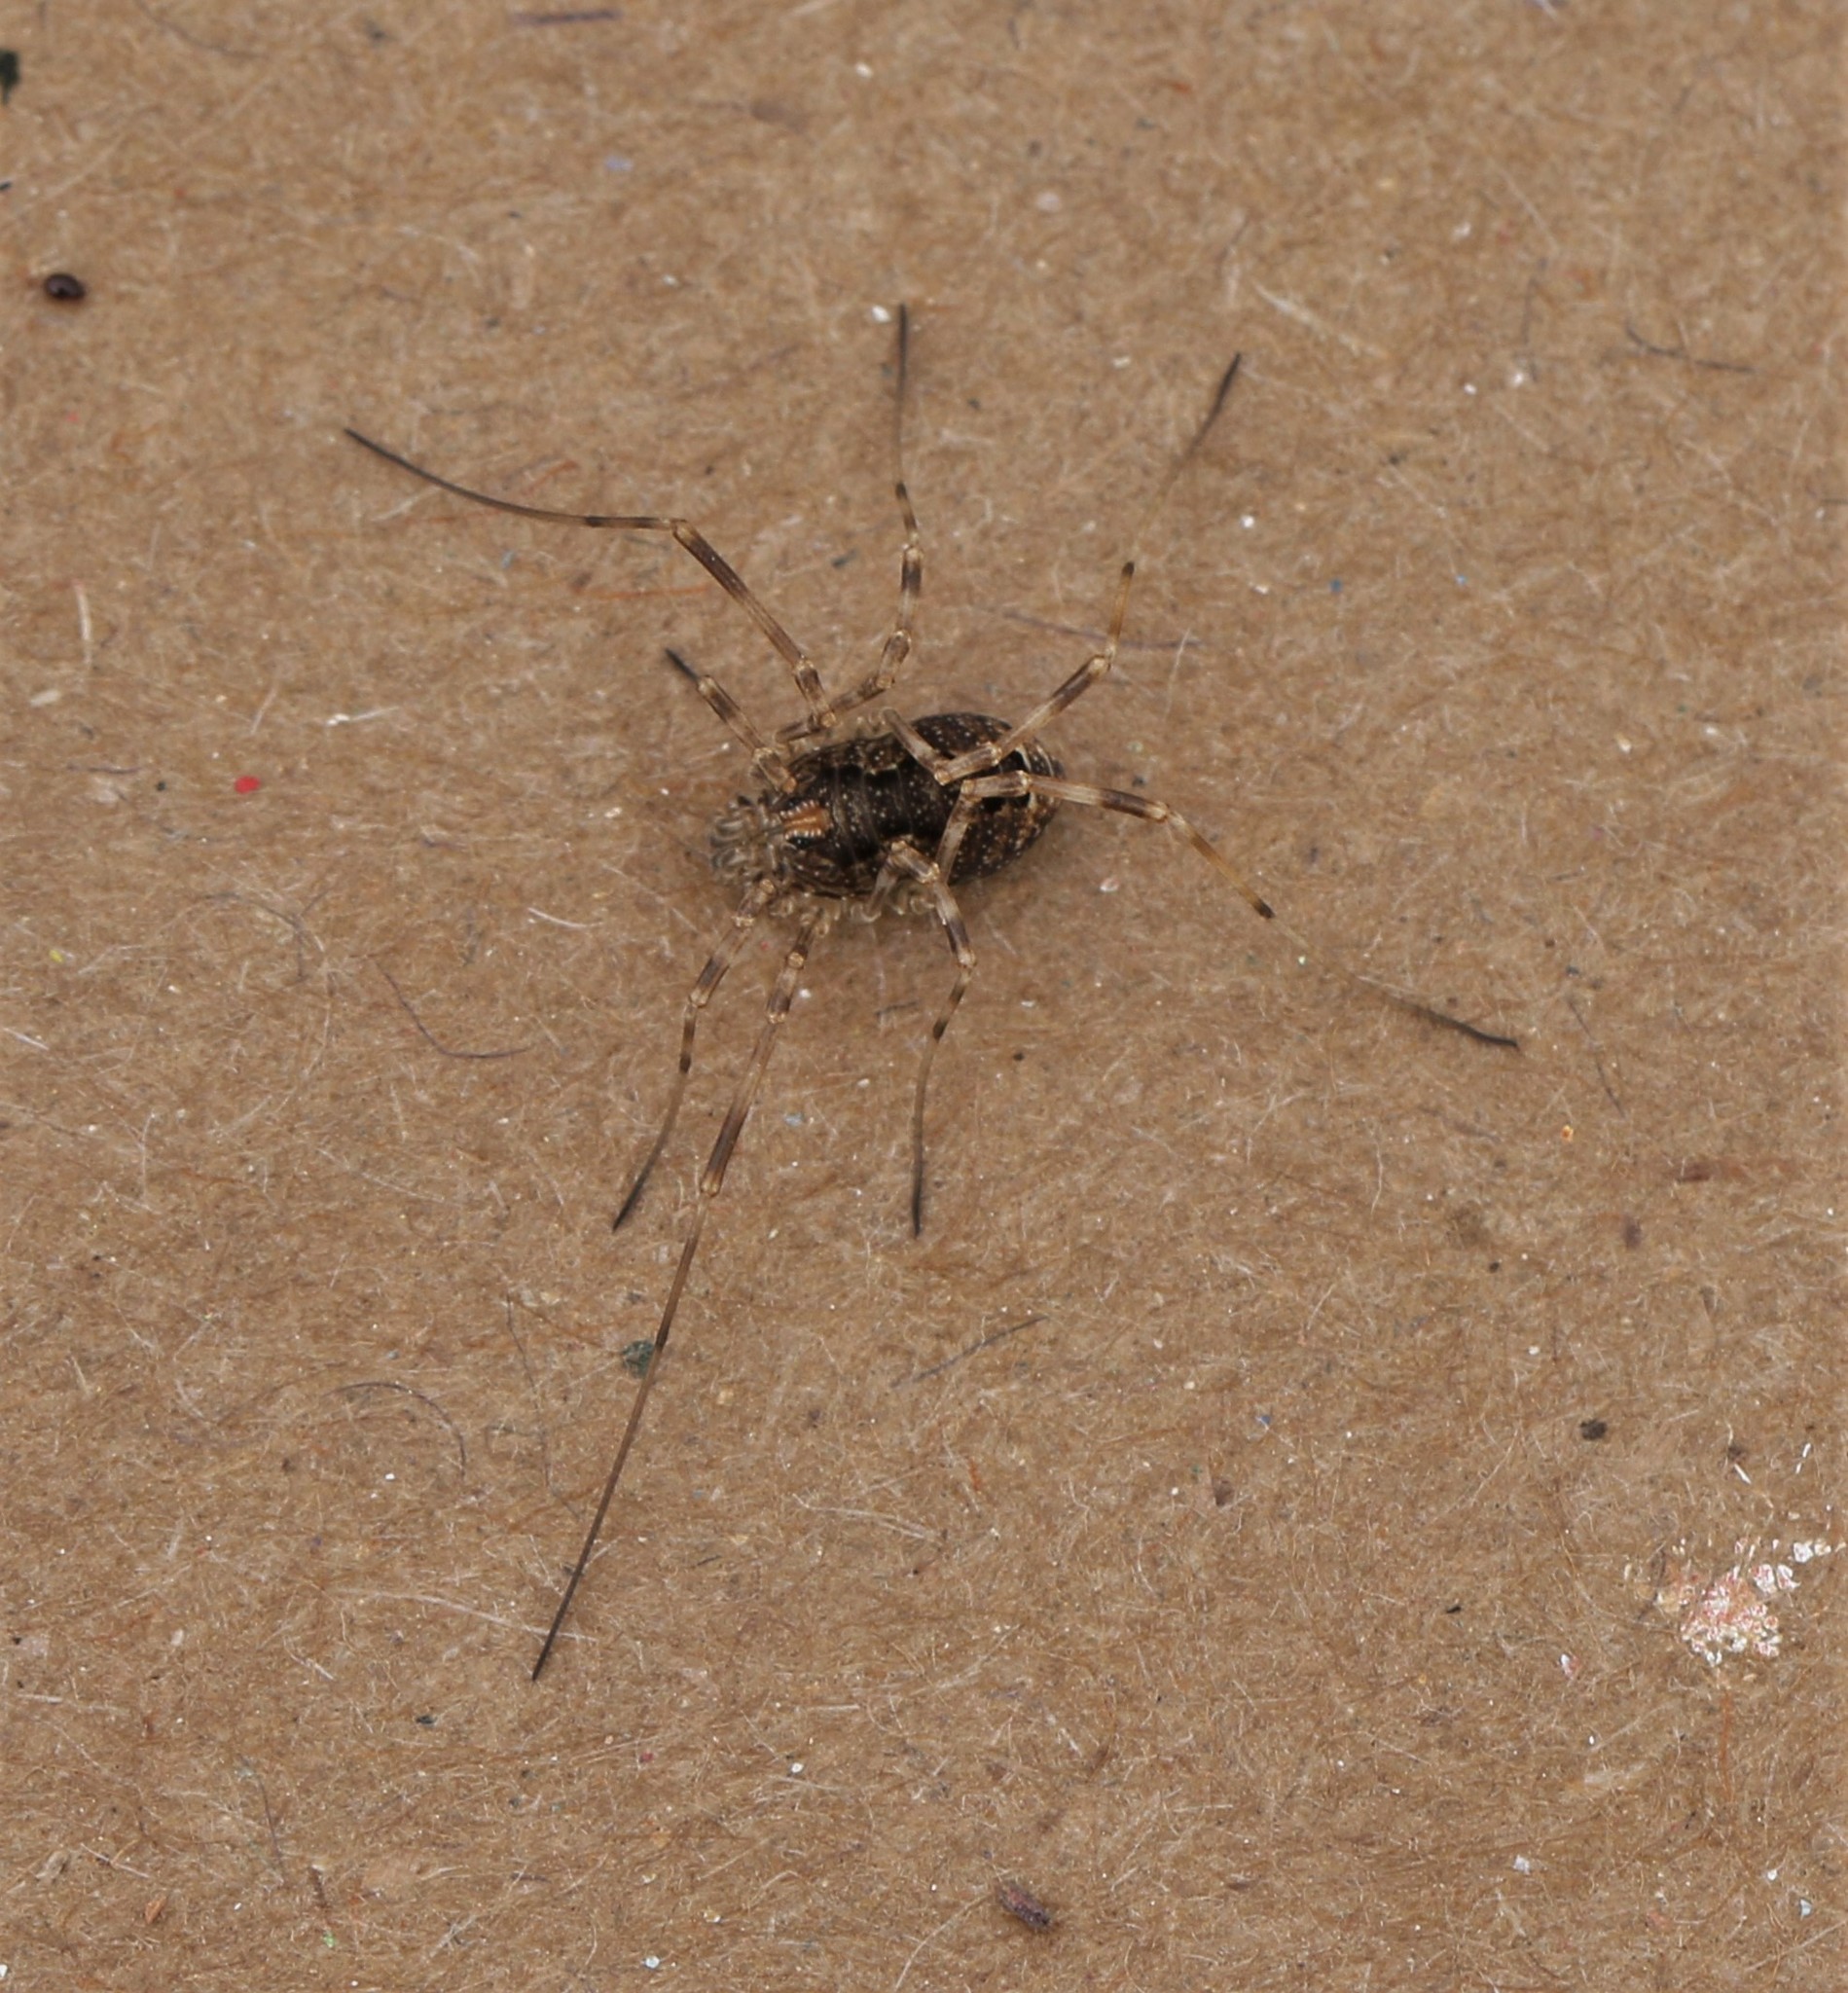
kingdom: Animalia
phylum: Arthropoda
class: Arachnida
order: Opiliones
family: Phalangiidae
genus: Rilaena
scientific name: Rilaena triangularis
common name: Spring harvestman
